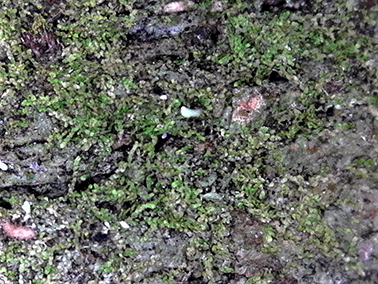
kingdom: Plantae
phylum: Marchantiophyta
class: Jungermanniopsida
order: Porellales
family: Lejeuneaceae
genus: Metalejeunea
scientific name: Metalejeunea cucullata
